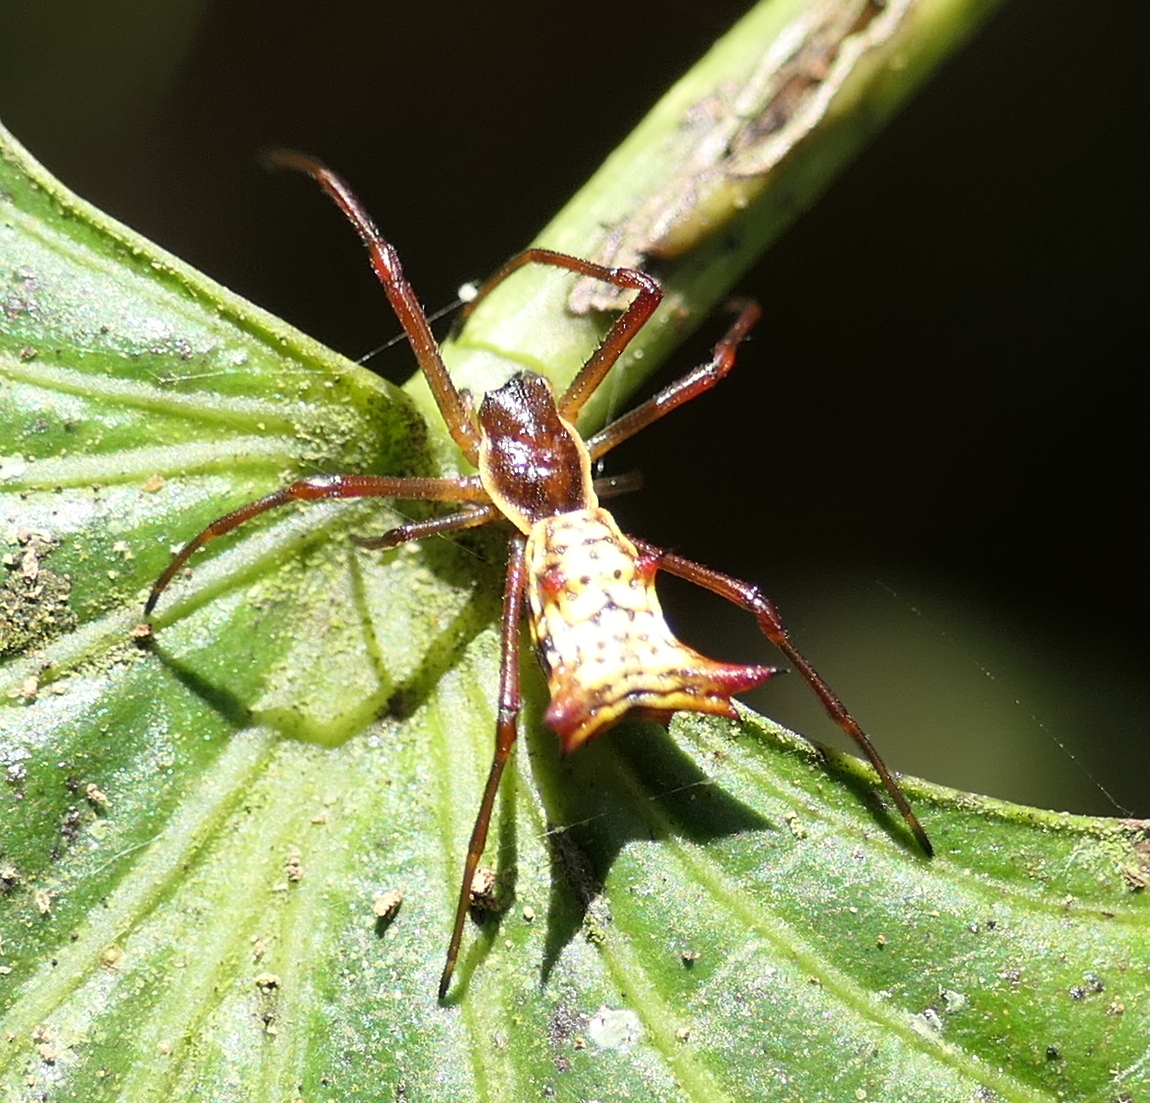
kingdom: Animalia
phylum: Arthropoda
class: Arachnida
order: Araneae
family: Araneidae
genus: Micrathena
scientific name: Micrathena fissispina
